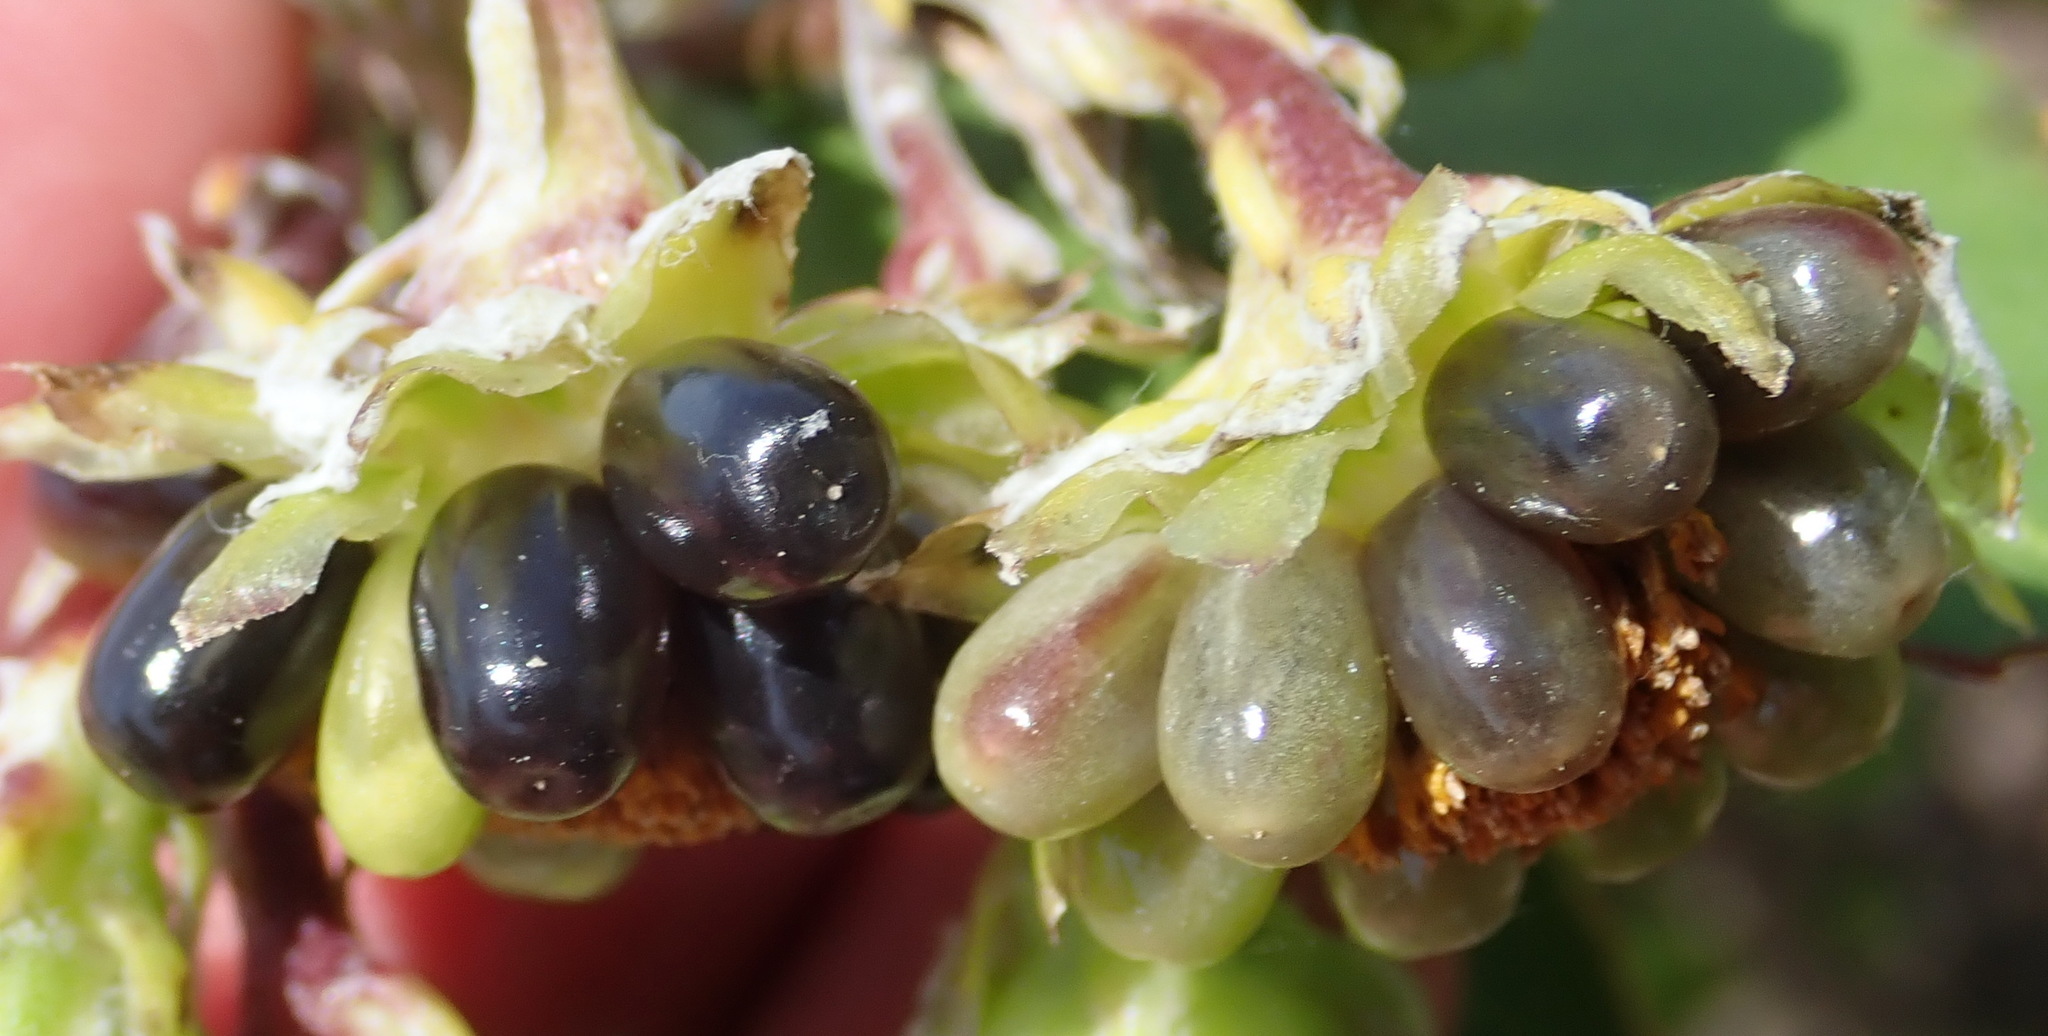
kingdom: Plantae
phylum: Tracheophyta
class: Magnoliopsida
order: Asterales
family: Asteraceae
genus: Osteospermum
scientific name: Osteospermum moniliferum
